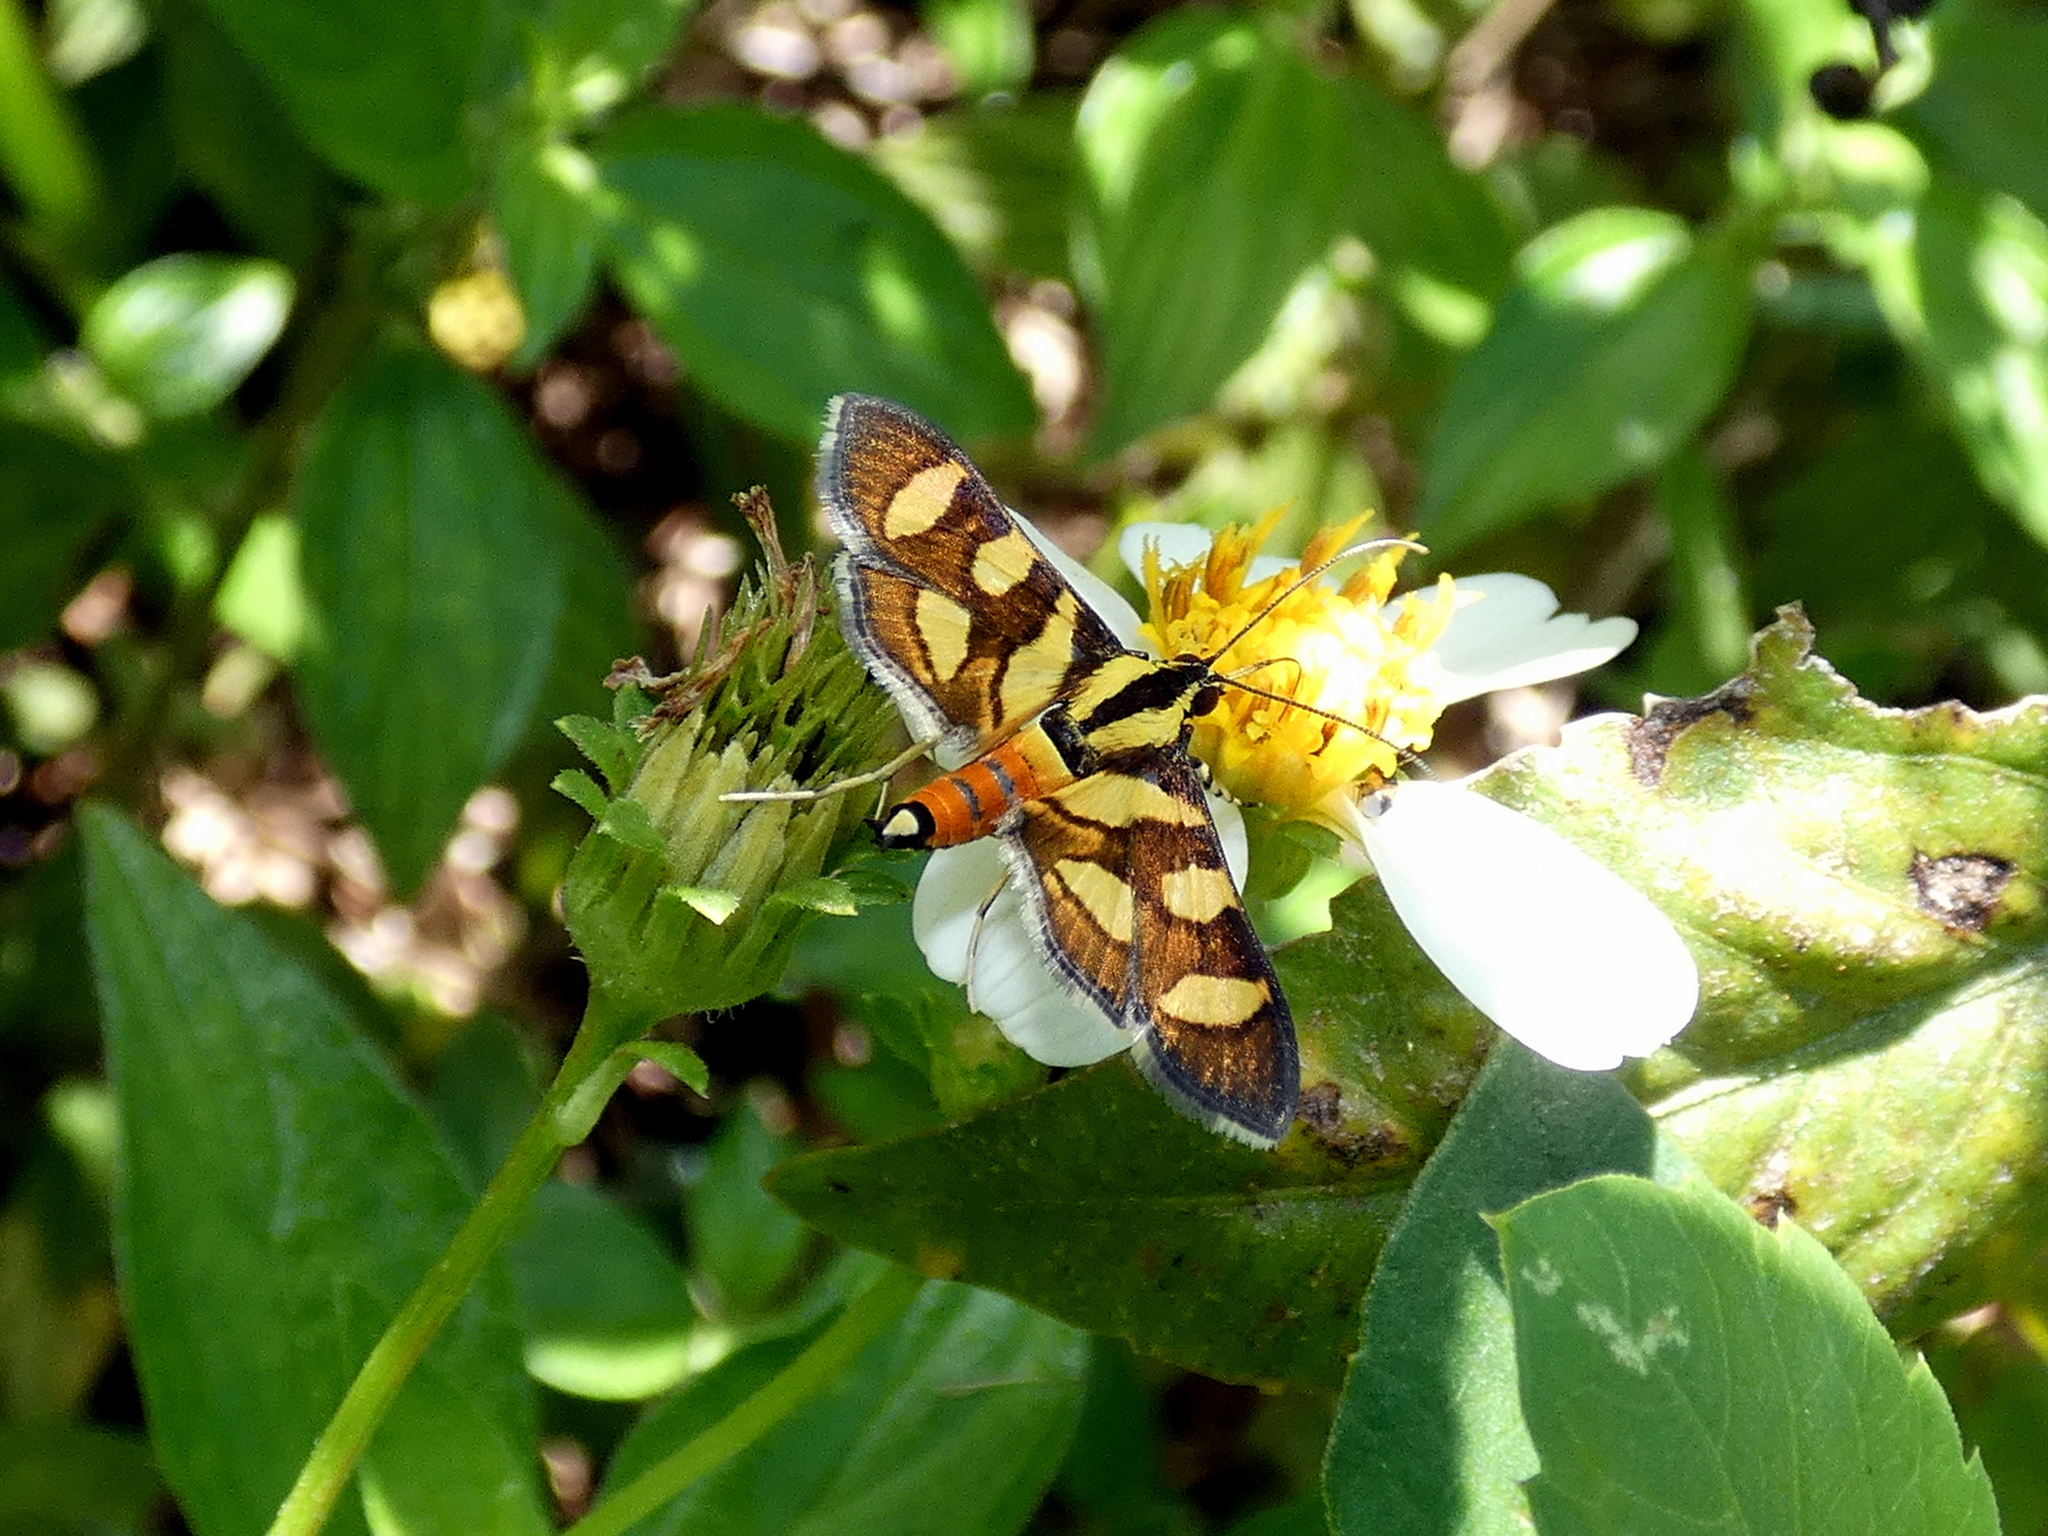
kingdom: Animalia
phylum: Arthropoda
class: Insecta
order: Lepidoptera
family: Crambidae
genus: Syngamia
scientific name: Syngamia florella
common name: Orange-spotted flower moth
